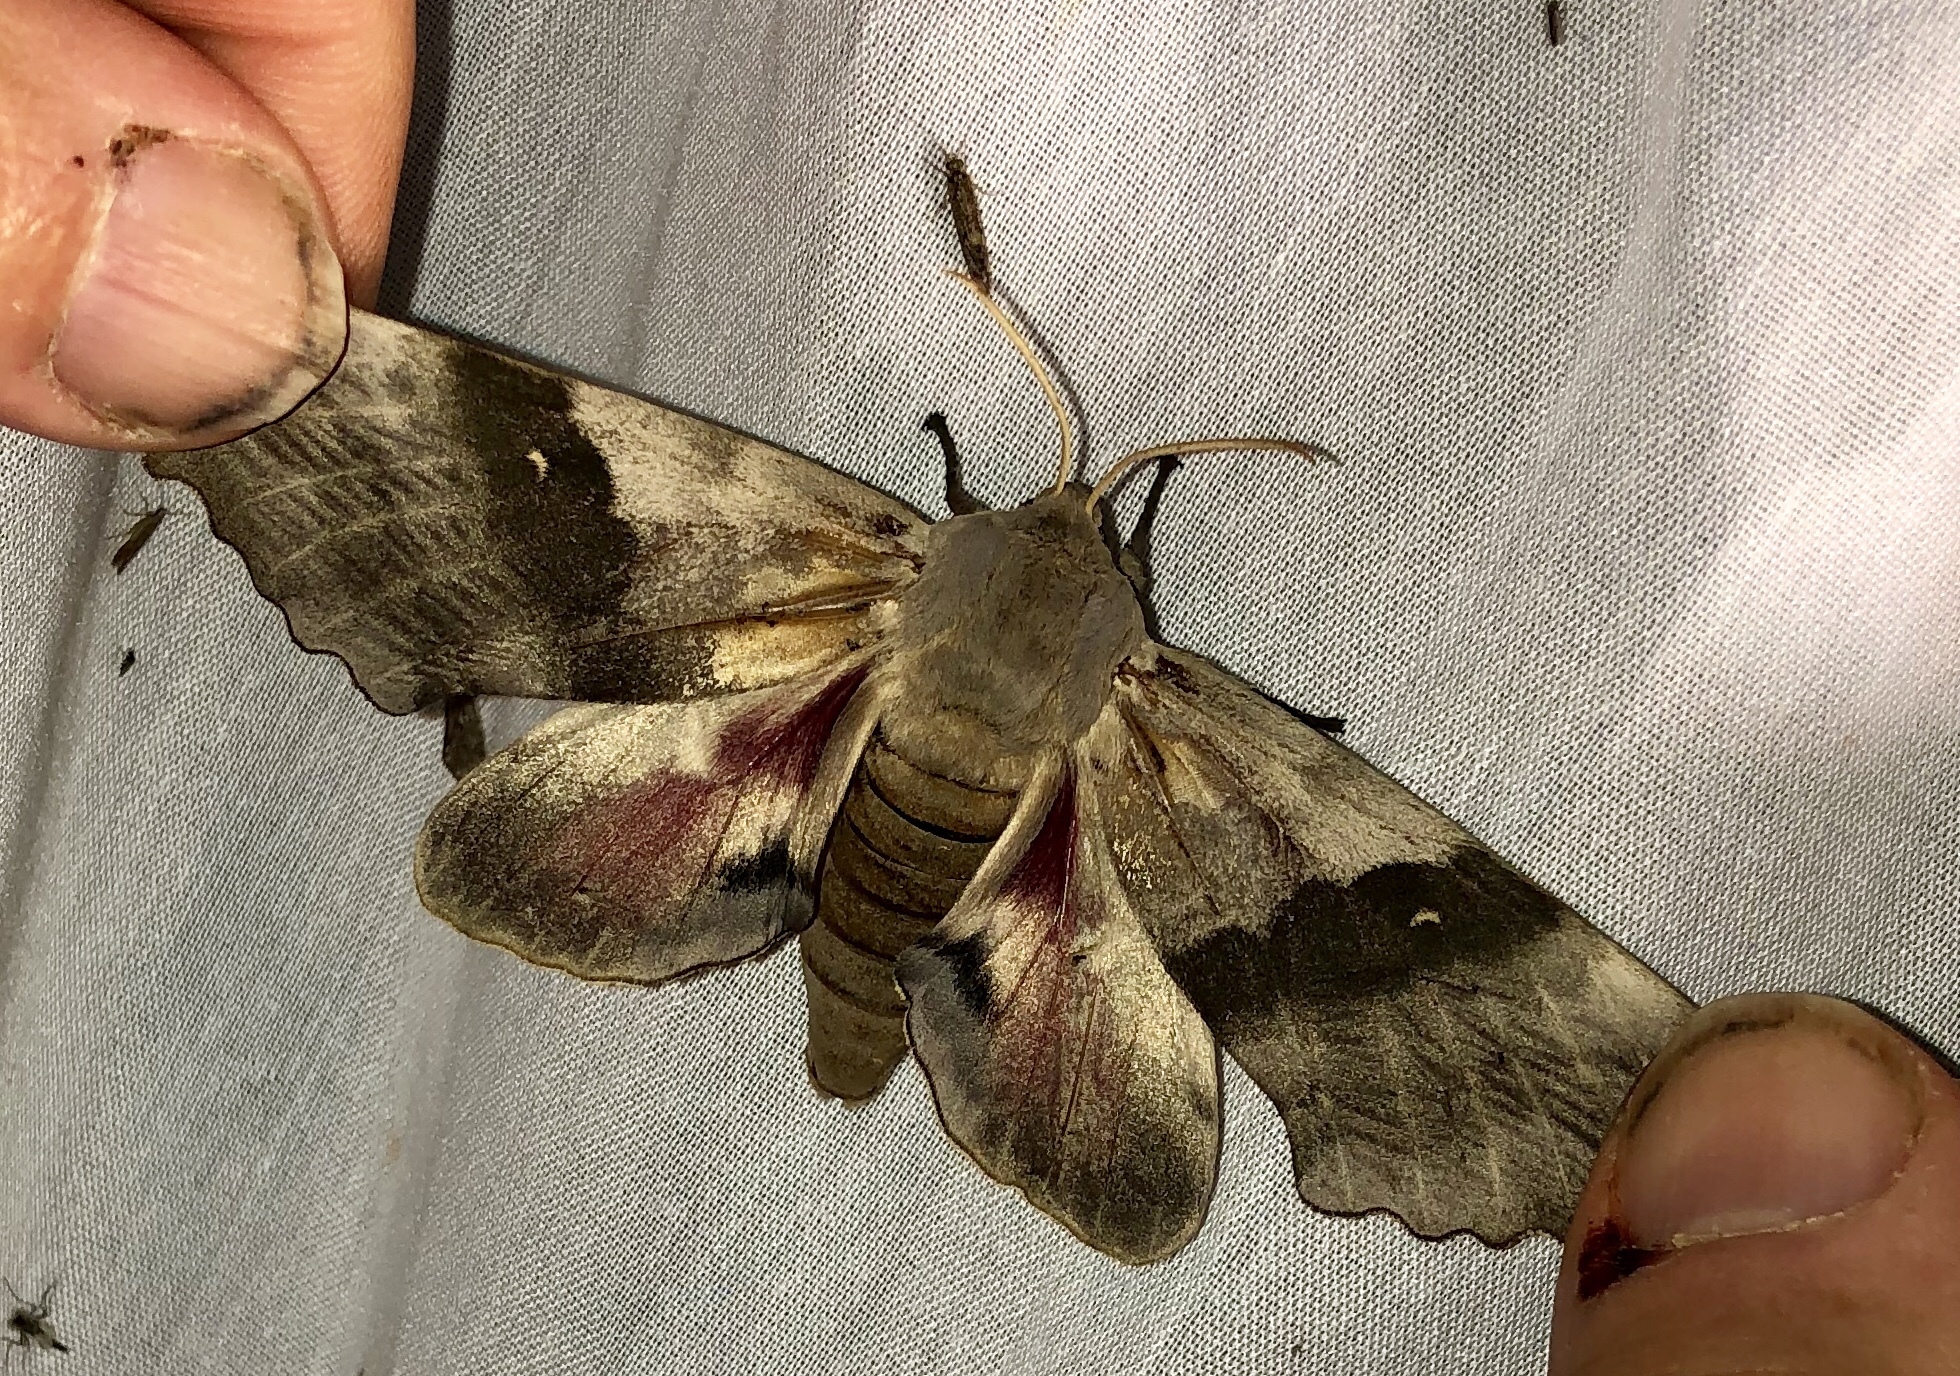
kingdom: Animalia
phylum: Arthropoda
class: Insecta
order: Lepidoptera
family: Sphingidae
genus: Pachysphinx
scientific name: Pachysphinx modesta
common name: Big poplar sphinx
